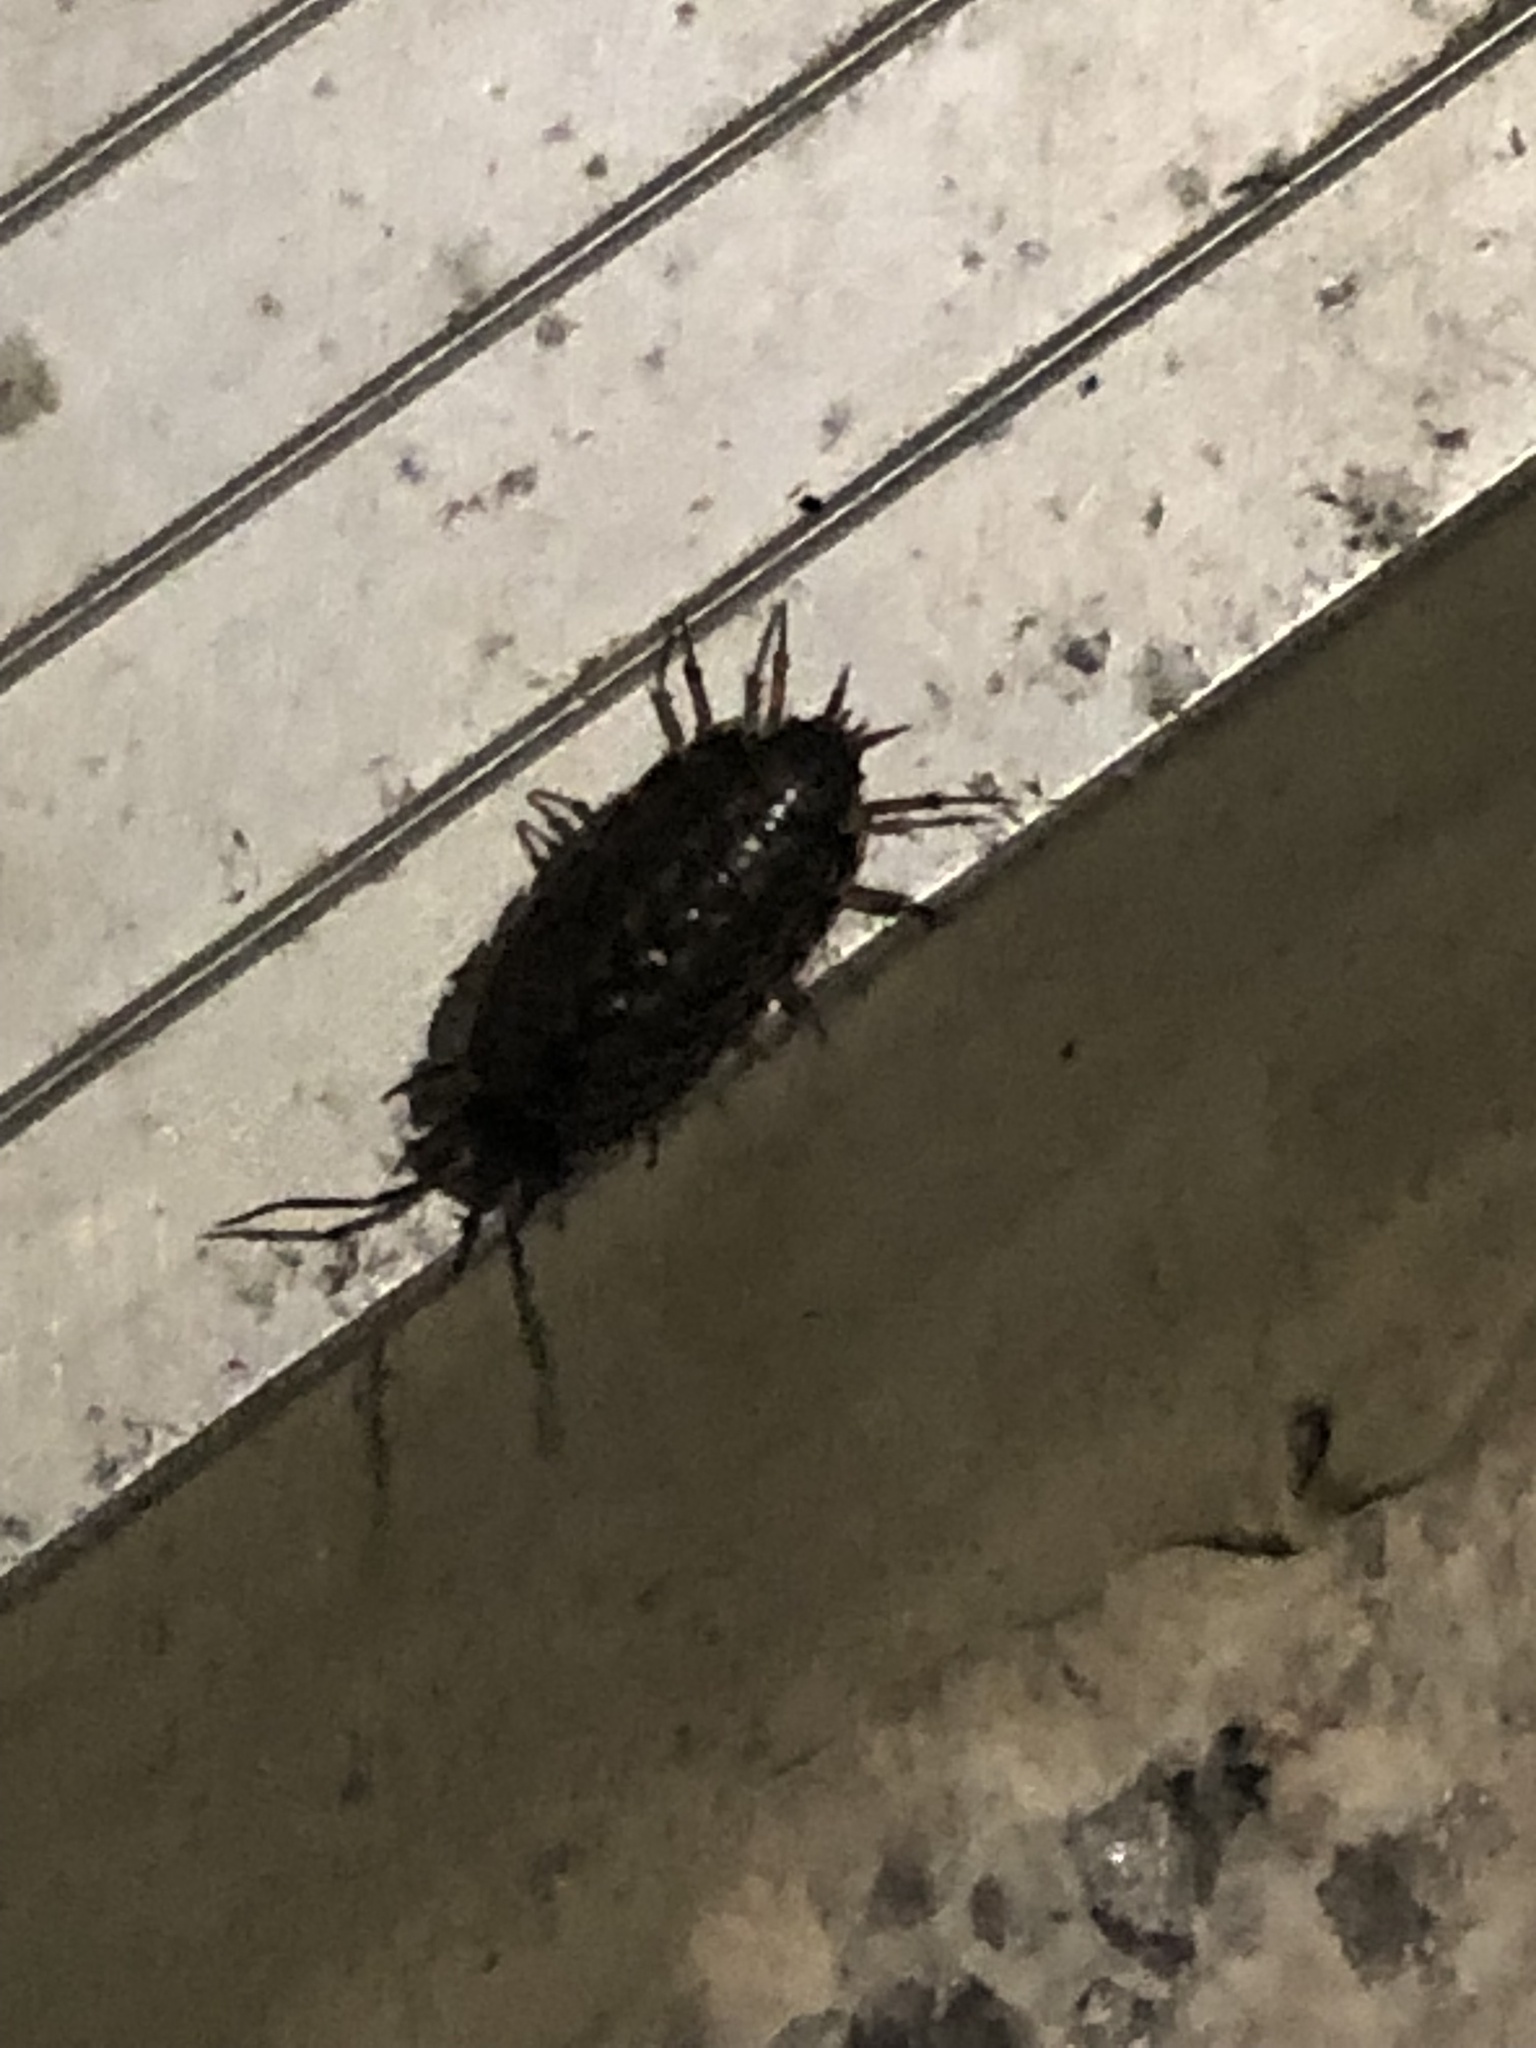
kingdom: Animalia
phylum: Arthropoda
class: Malacostraca
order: Isopoda
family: Philosciidae
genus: Philoscia
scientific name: Philoscia muscorum
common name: Common striped woodlouse
